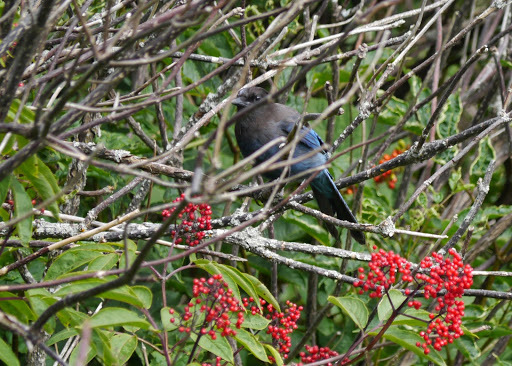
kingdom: Animalia
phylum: Chordata
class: Aves
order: Passeriformes
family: Corvidae
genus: Cyanocitta
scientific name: Cyanocitta stelleri
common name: Steller's jay
